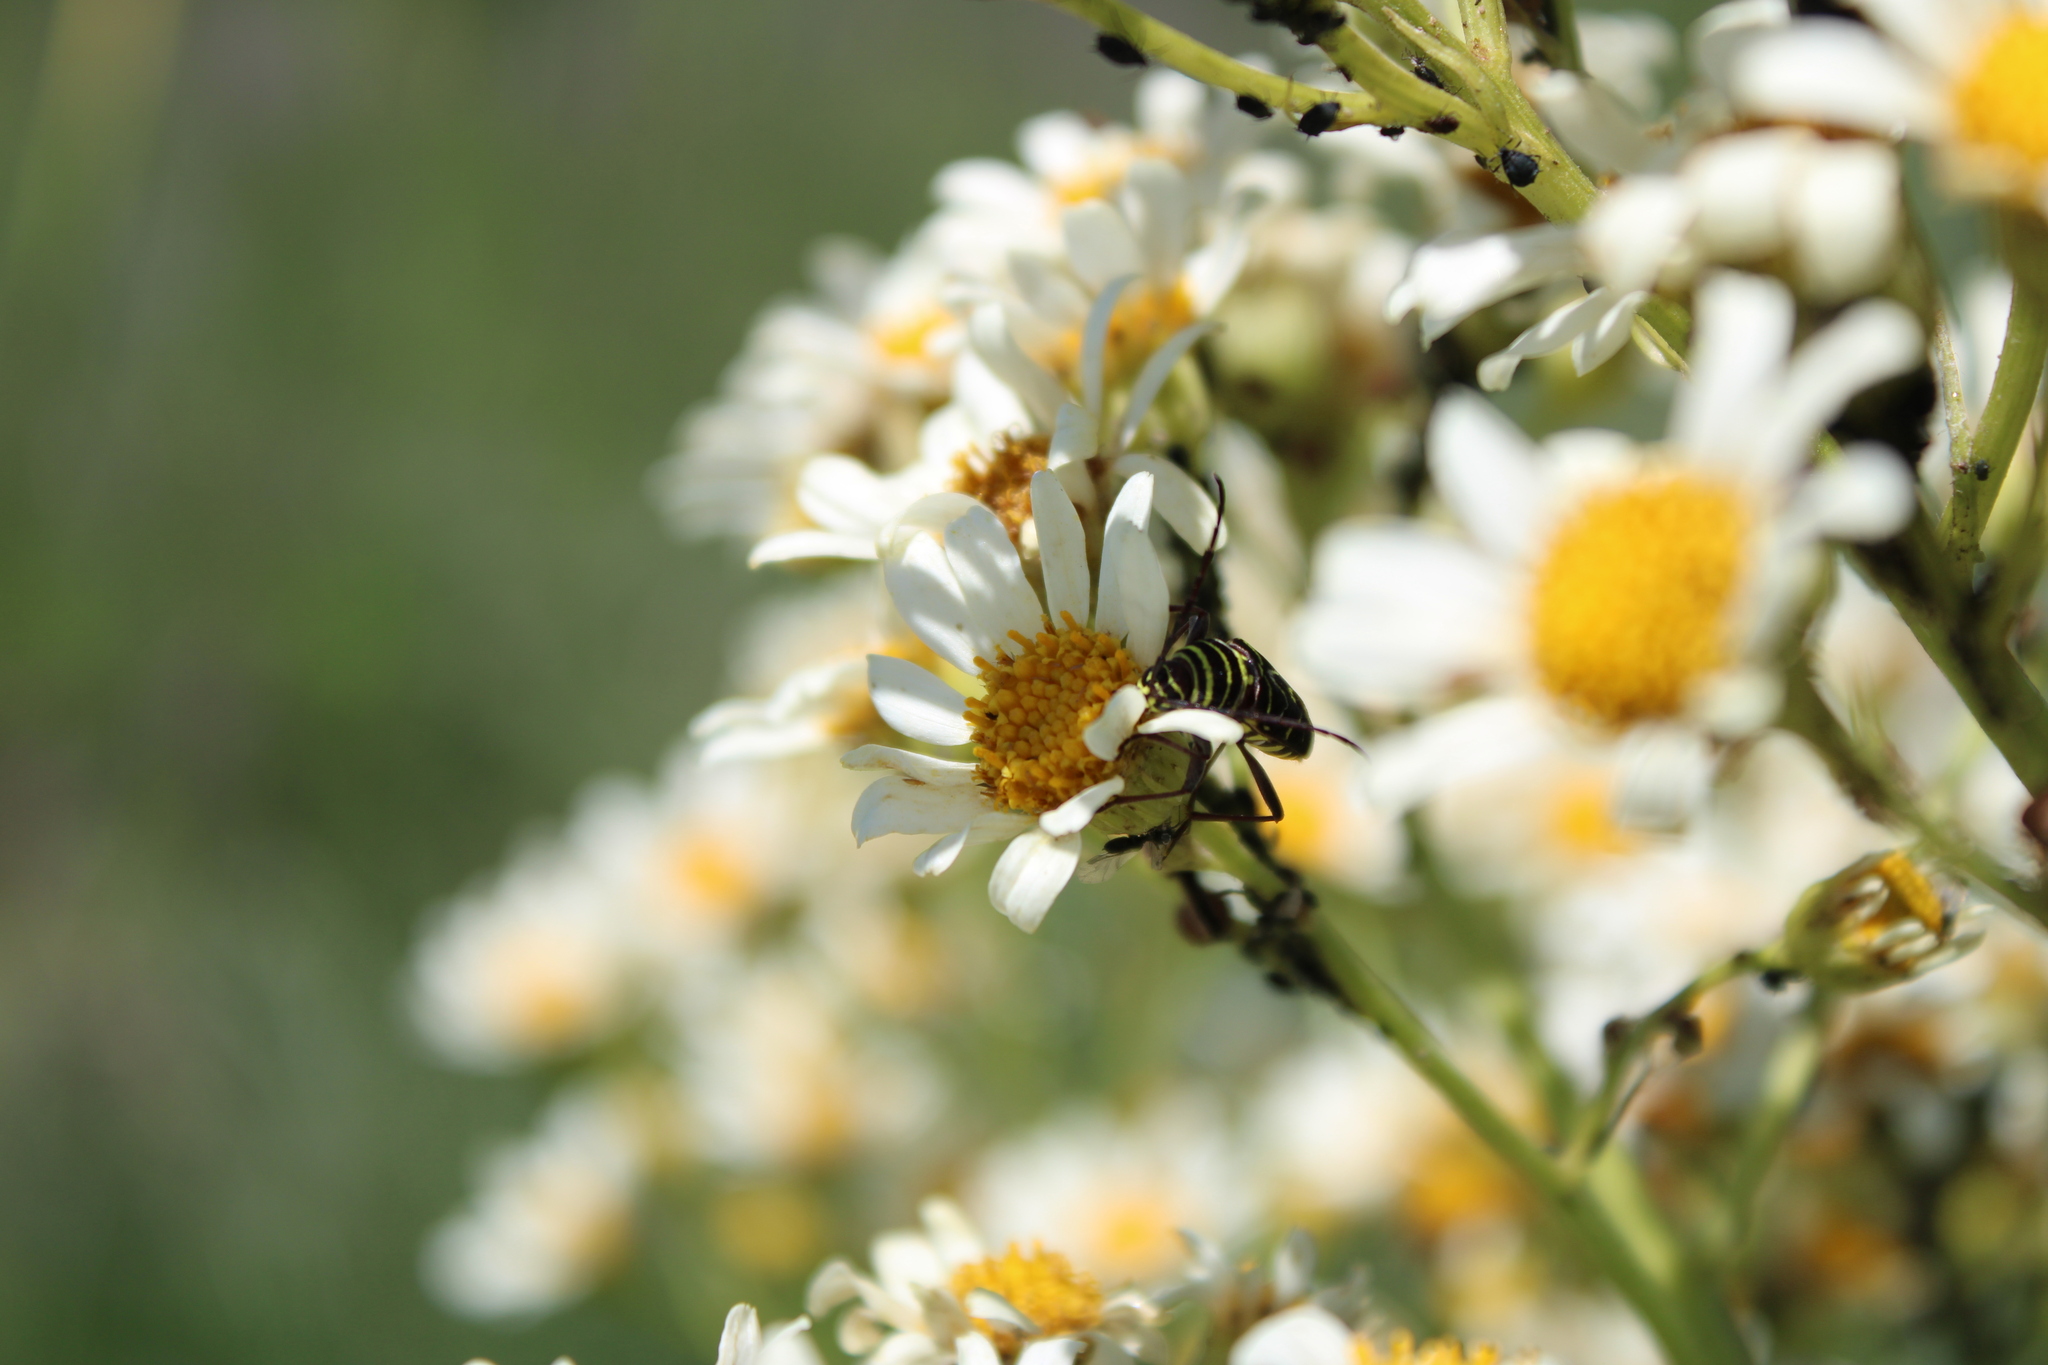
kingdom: Animalia
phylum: Arthropoda
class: Insecta
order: Coleoptera
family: Cerambycidae
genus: Megacyllene
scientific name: Megacyllene acuta
